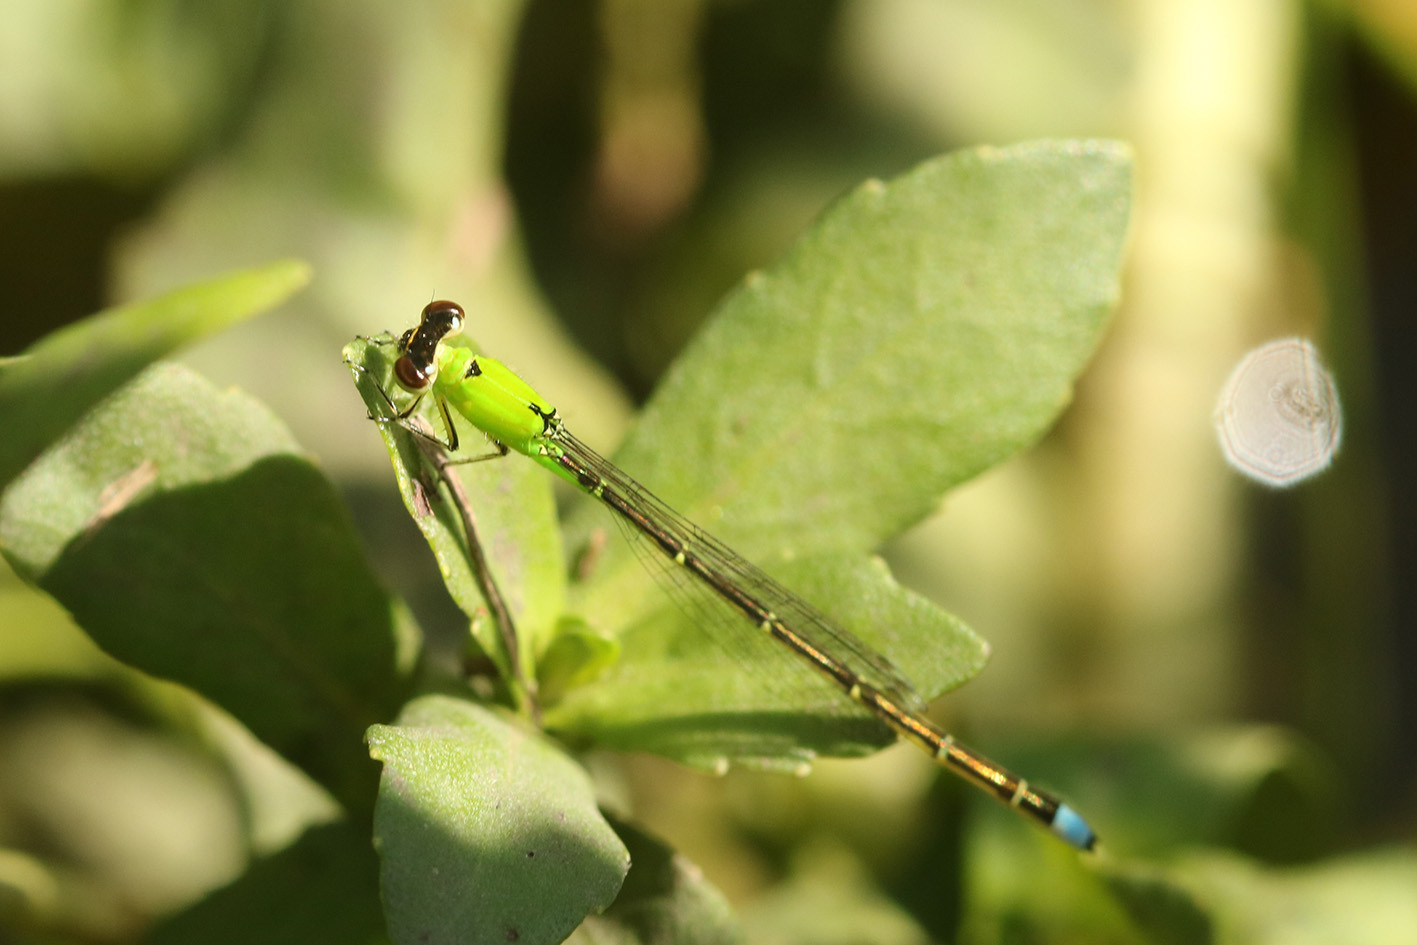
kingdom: Animalia
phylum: Arthropoda
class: Insecta
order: Odonata
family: Coenagrionidae
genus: Ischnura
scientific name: Ischnura capreolus
